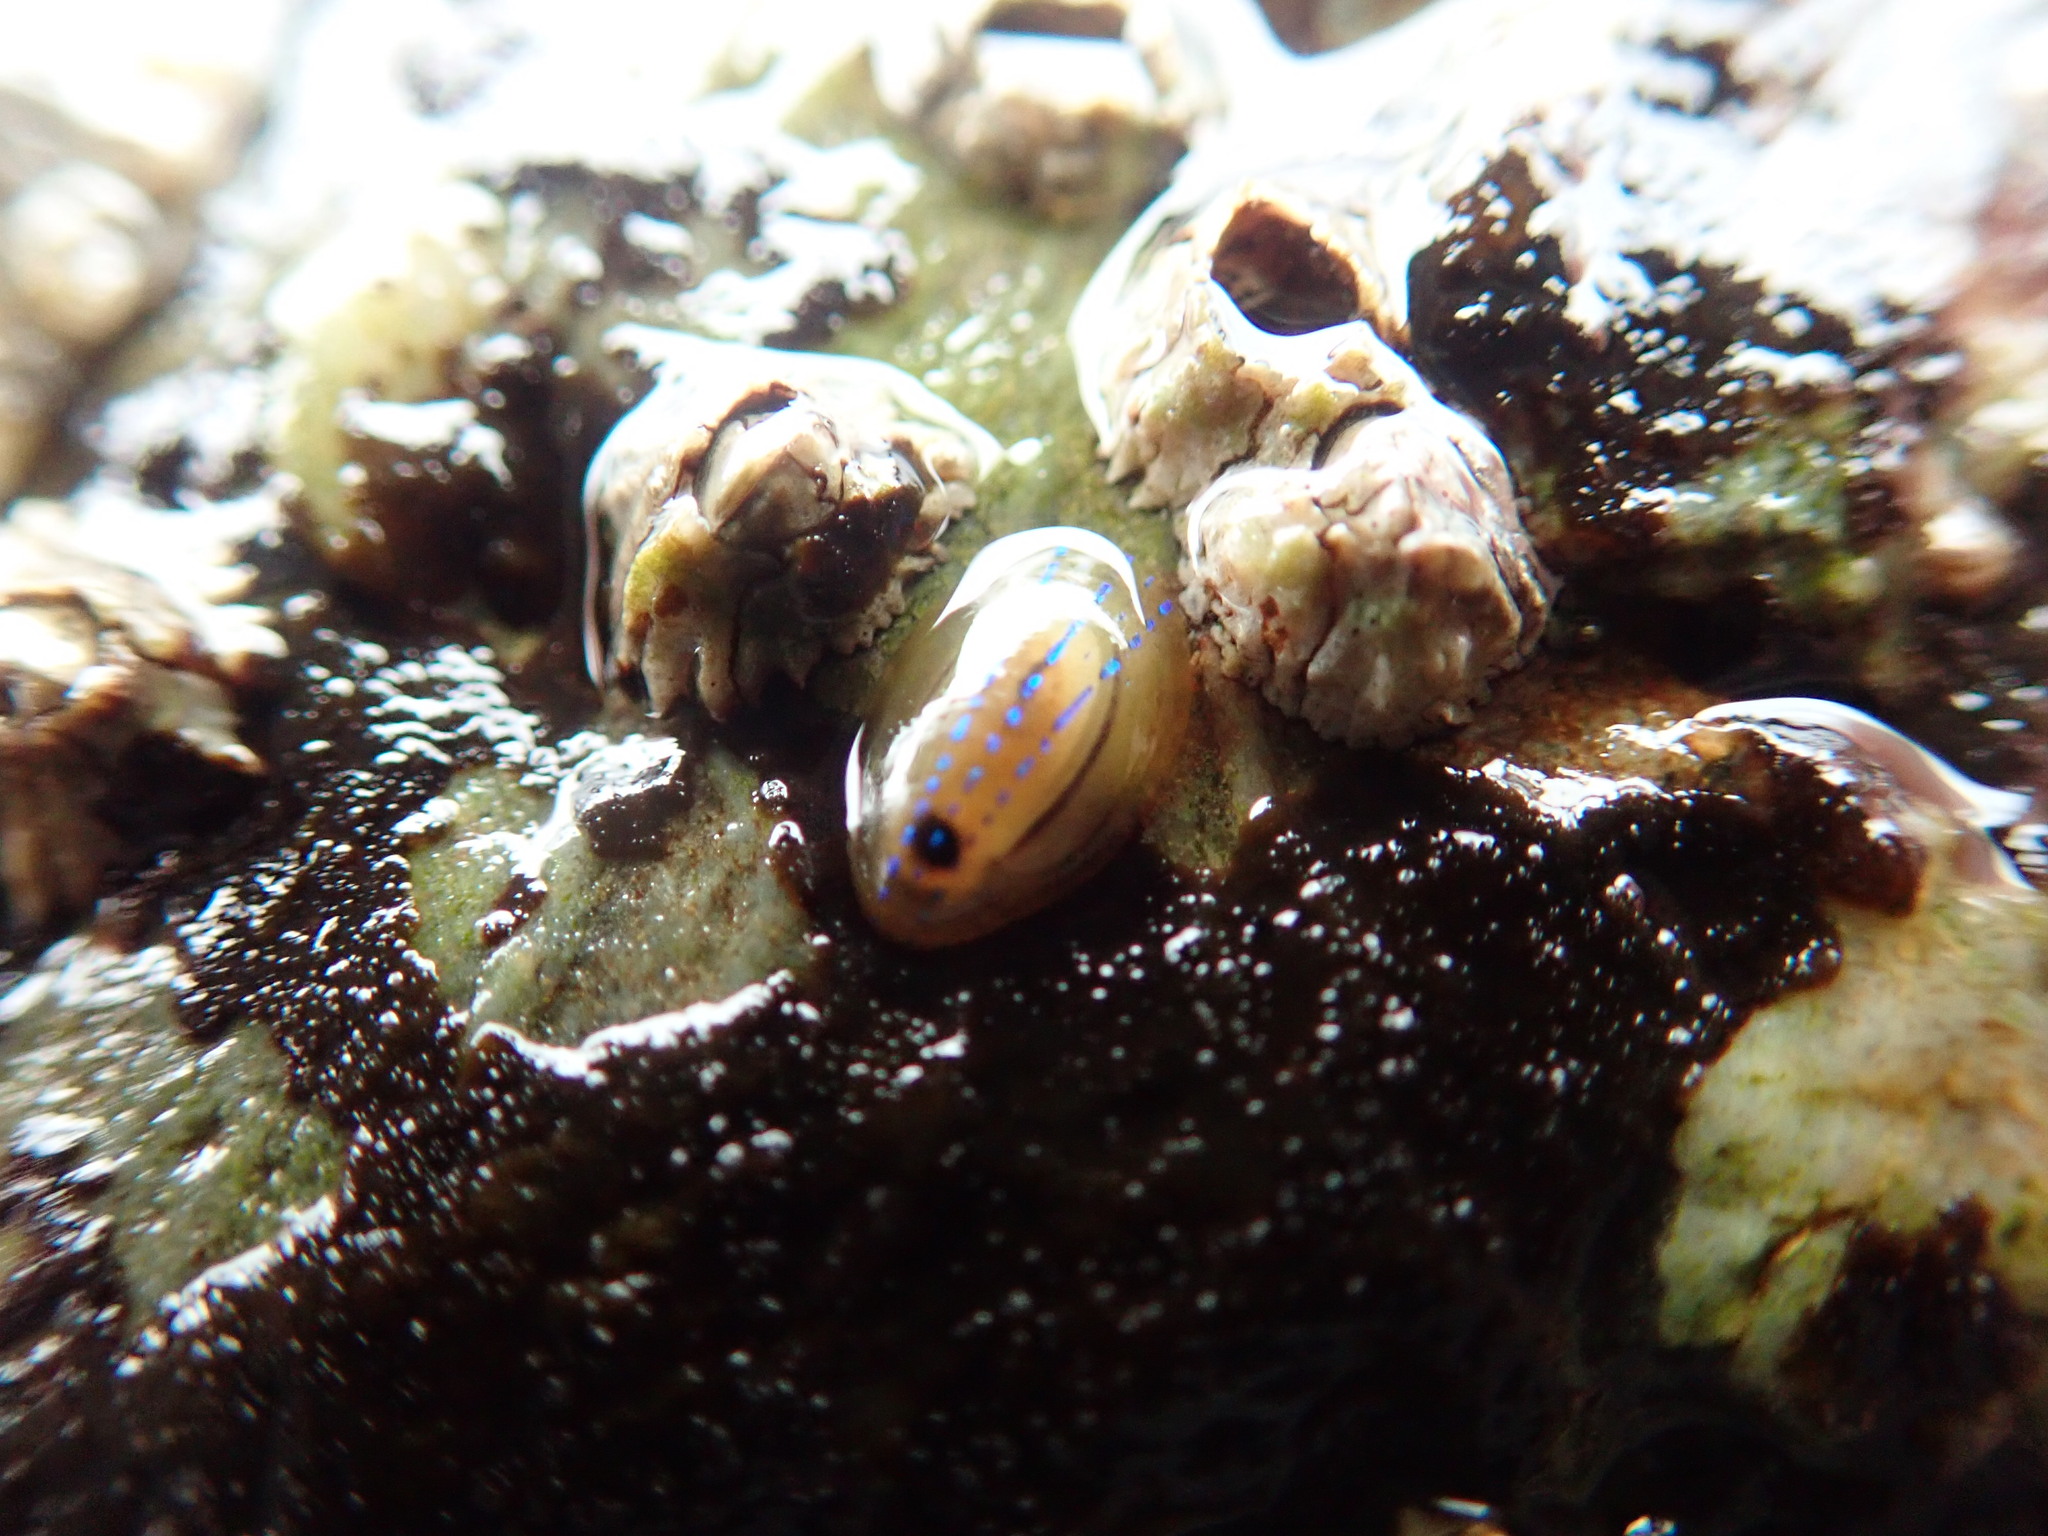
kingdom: Animalia
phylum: Mollusca
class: Gastropoda
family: Patellidae
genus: Patella
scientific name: Patella pellucida
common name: Blue-rayed limpet
